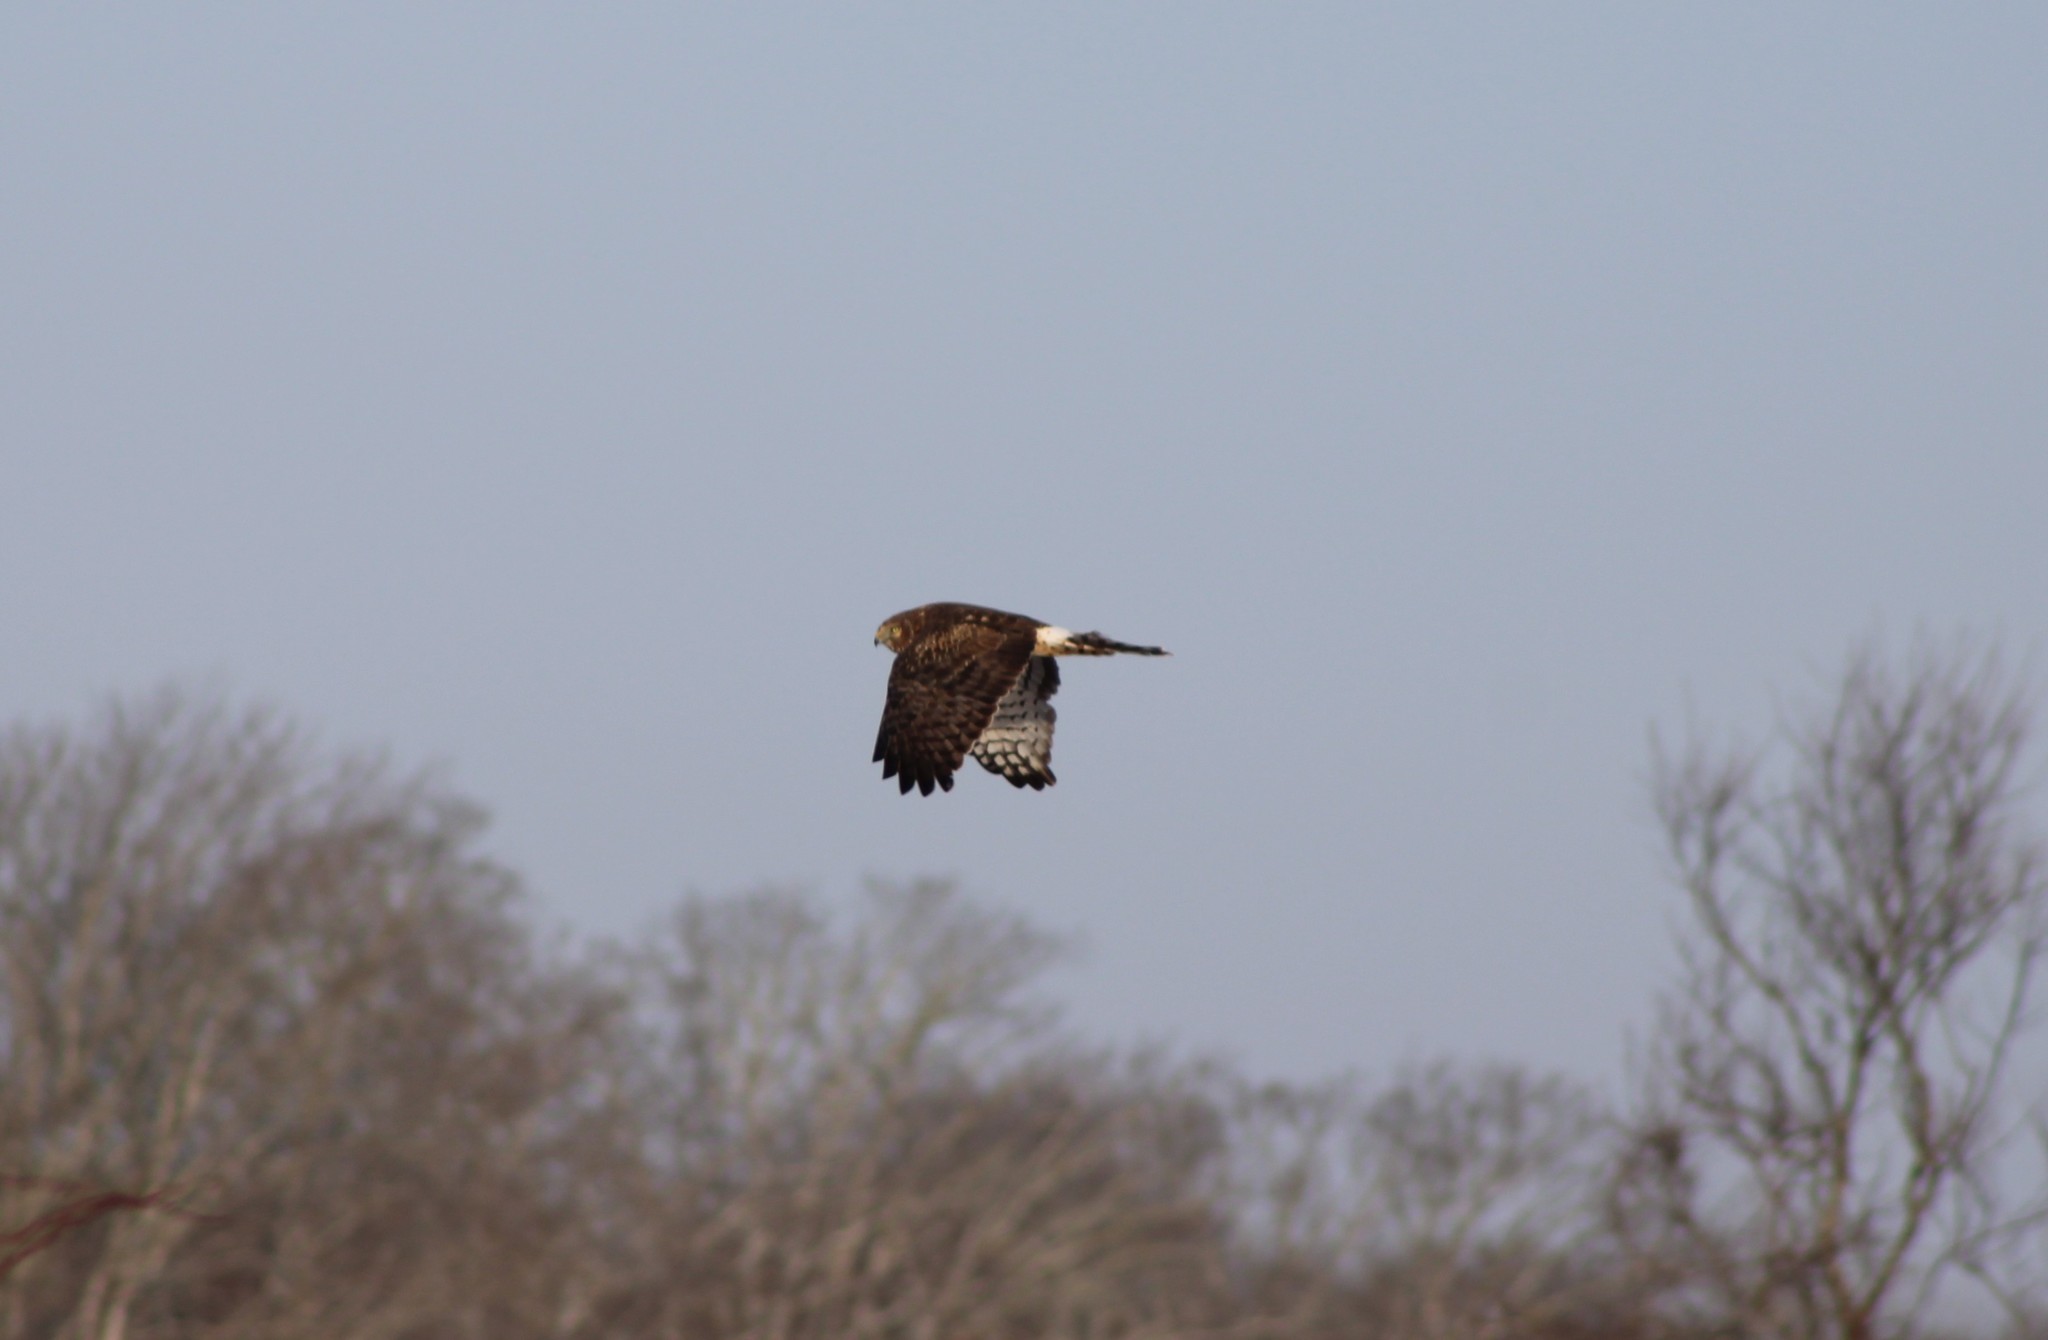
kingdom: Animalia
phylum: Chordata
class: Aves
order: Accipitriformes
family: Accipitridae
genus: Circus
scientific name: Circus cyaneus
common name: Hen harrier
